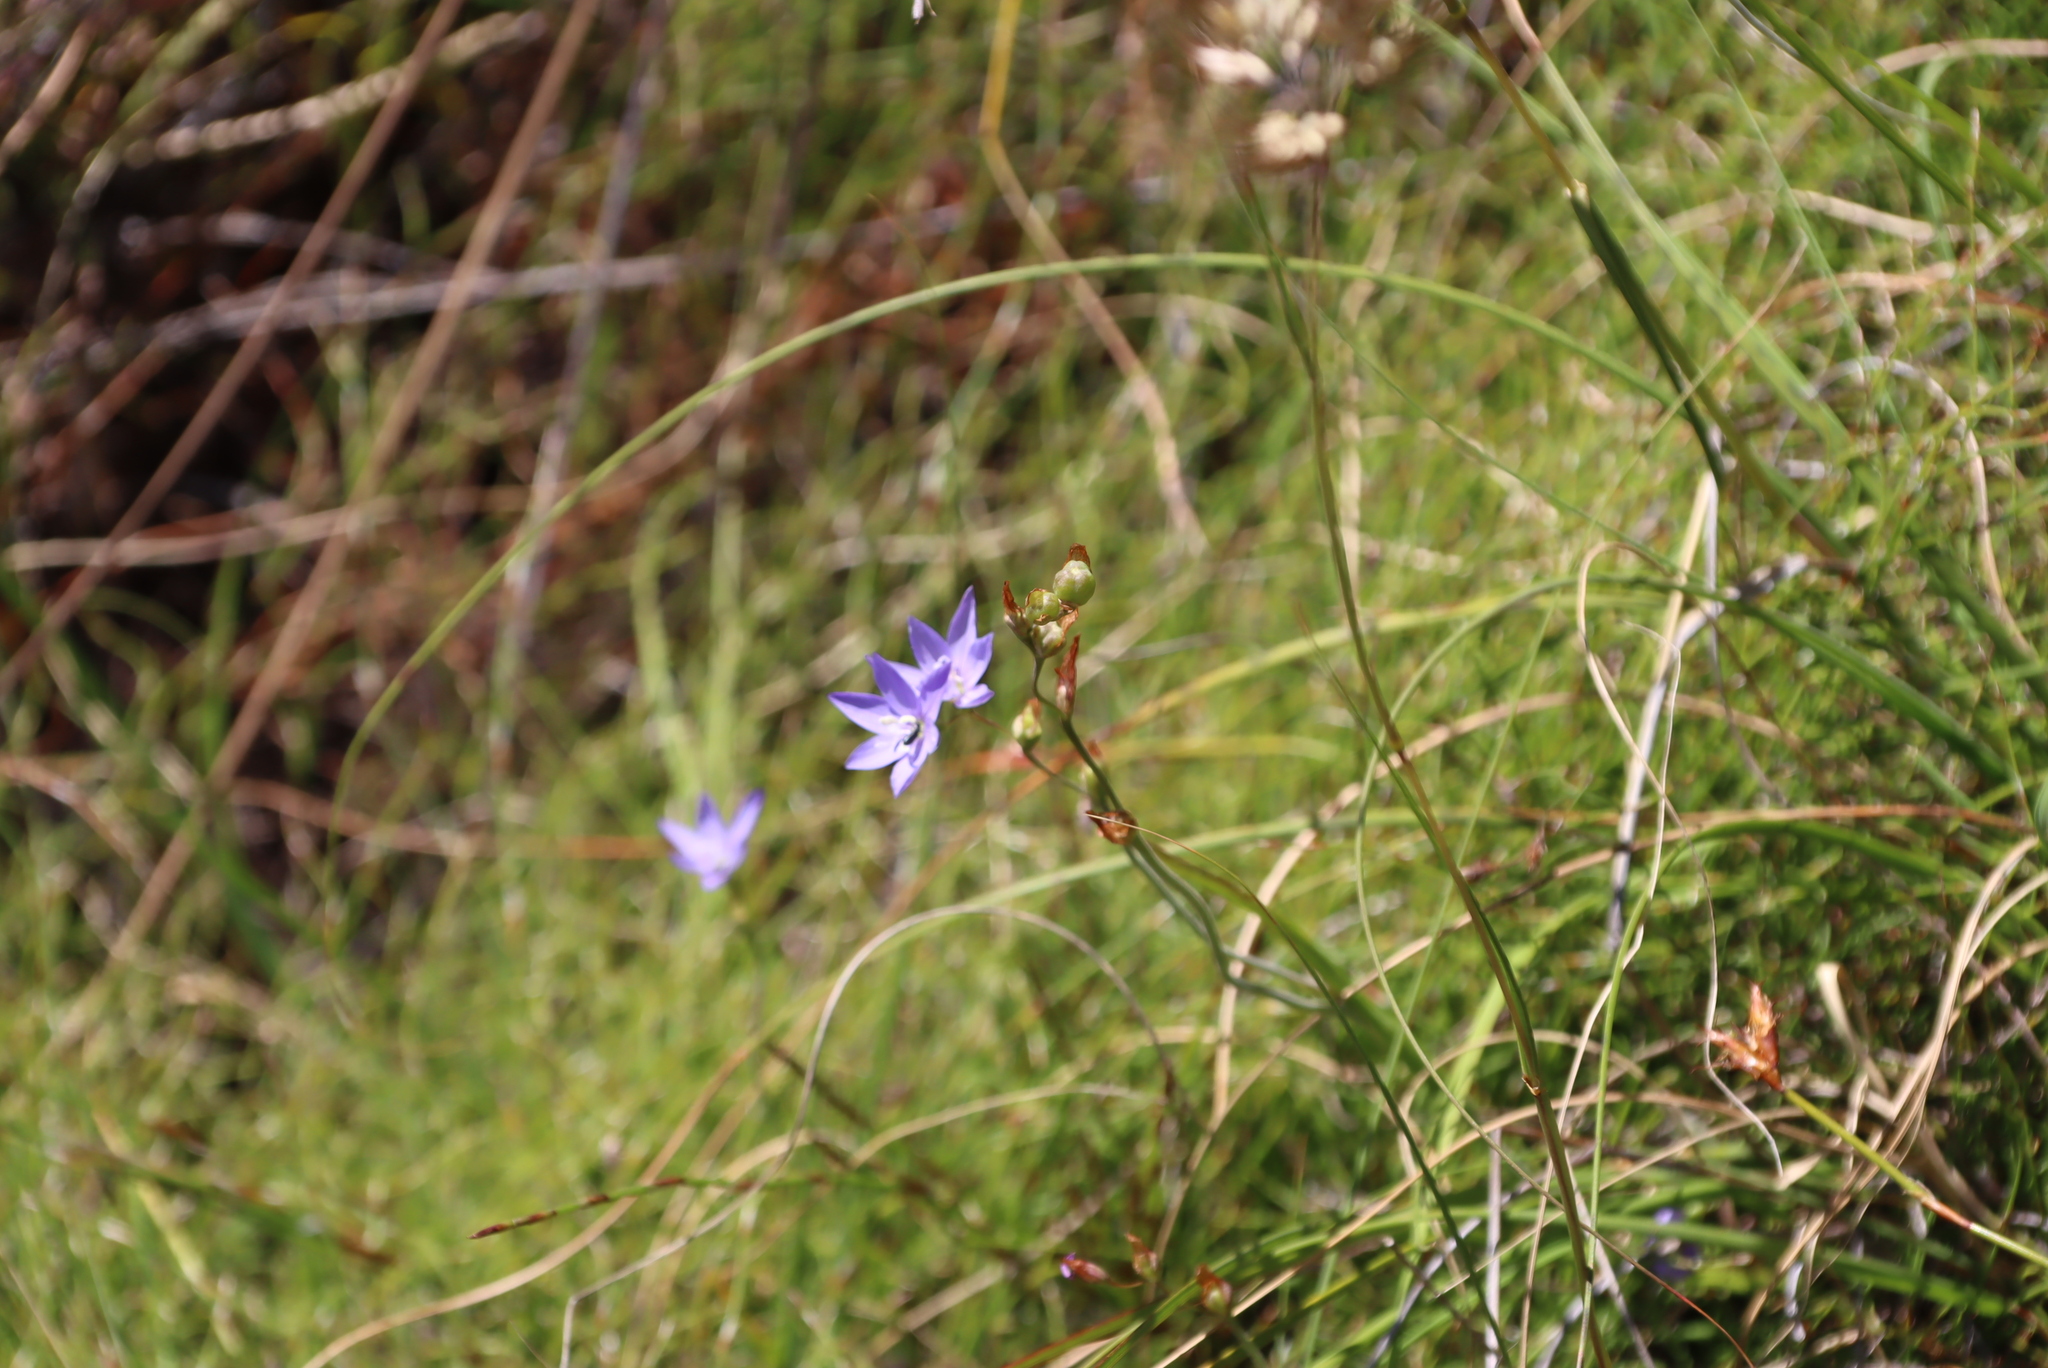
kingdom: Plantae
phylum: Tracheophyta
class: Liliopsida
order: Asparagales
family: Iridaceae
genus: Geissorhiza
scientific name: Geissorhiza aspera
